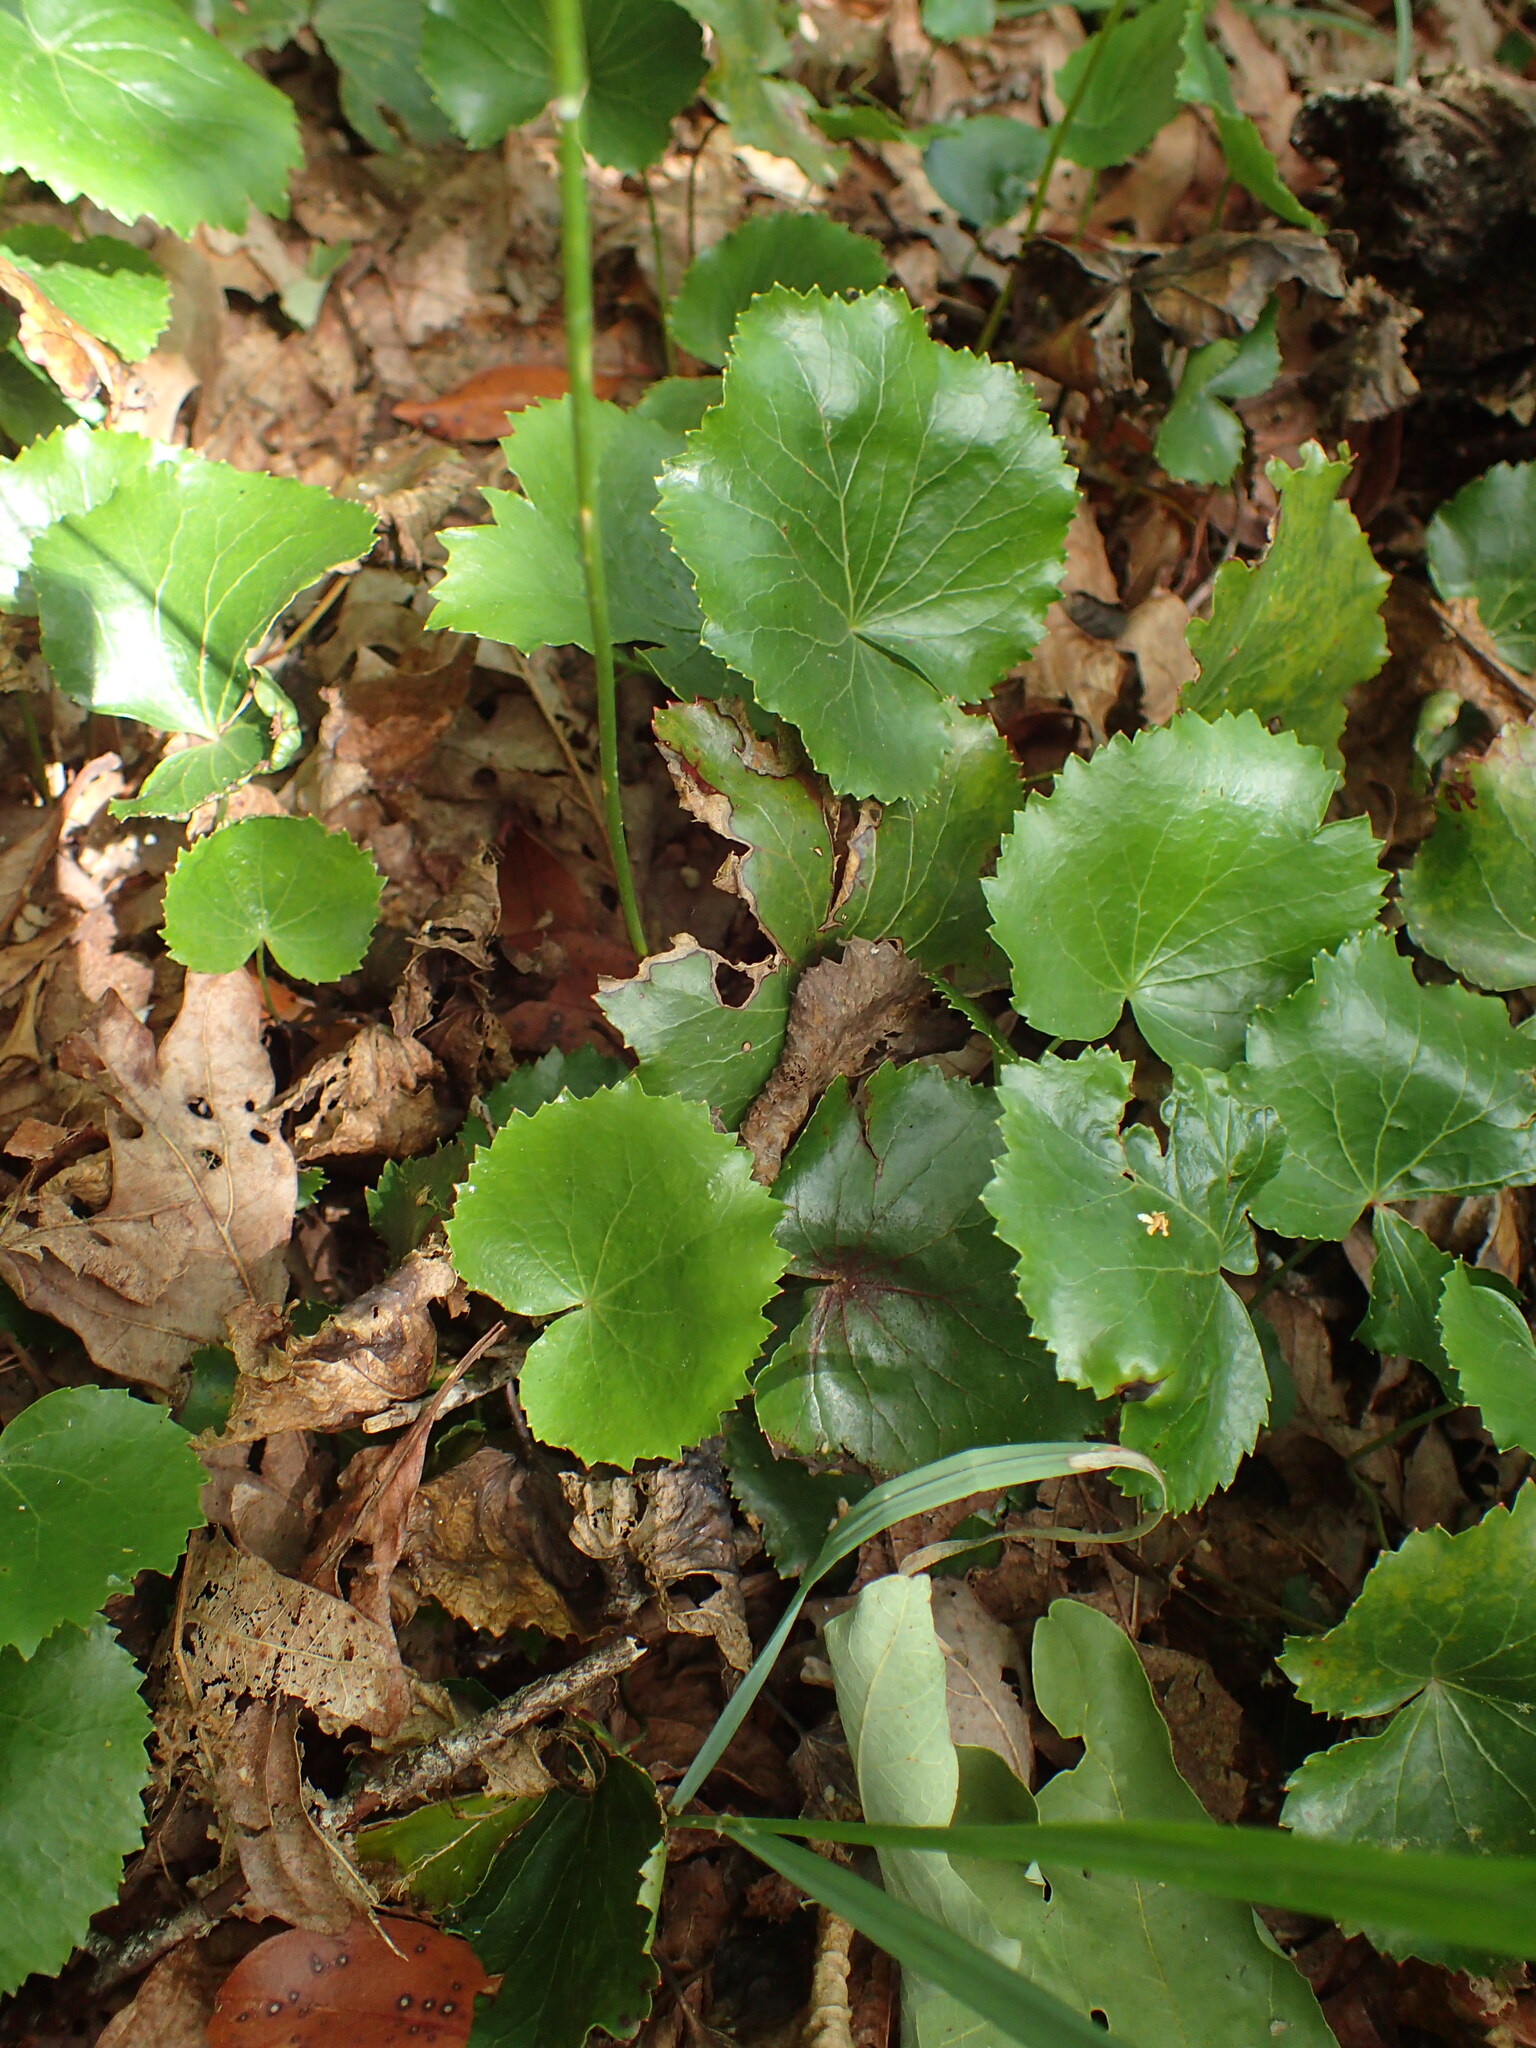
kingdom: Plantae
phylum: Tracheophyta
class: Magnoliopsida
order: Ericales
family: Diapensiaceae
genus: Galax
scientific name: Galax urceolata
